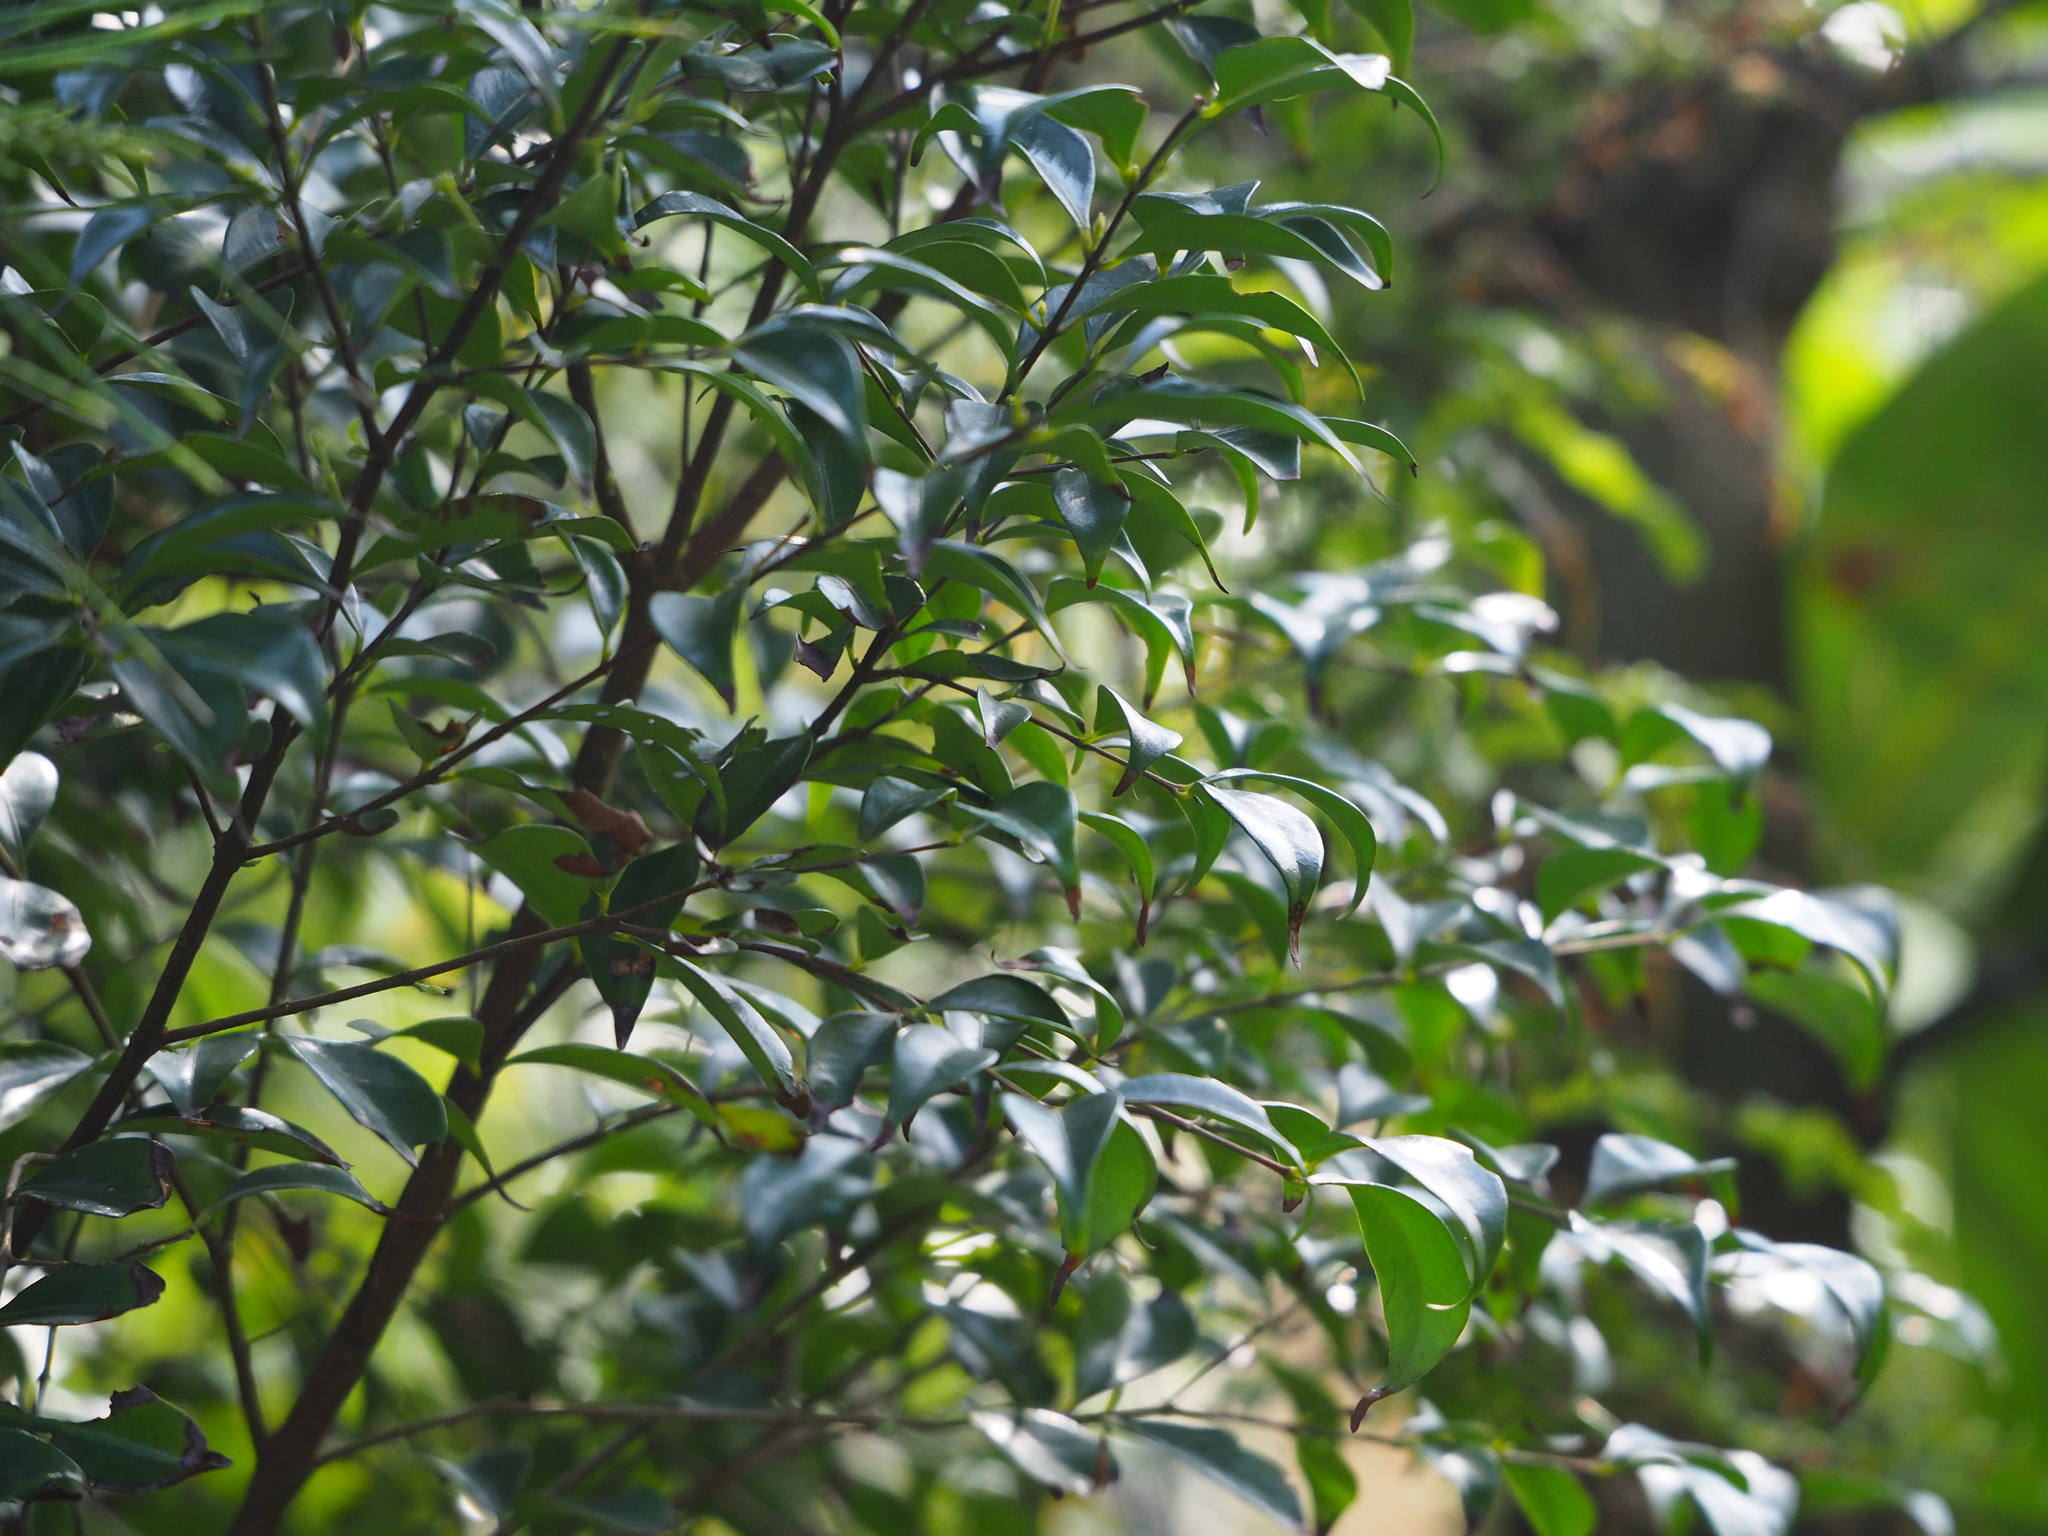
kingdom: Plantae
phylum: Tracheophyta
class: Magnoliopsida
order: Myrtales
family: Myrtaceae
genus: Decaspermum
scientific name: Decaspermum gracilentum
